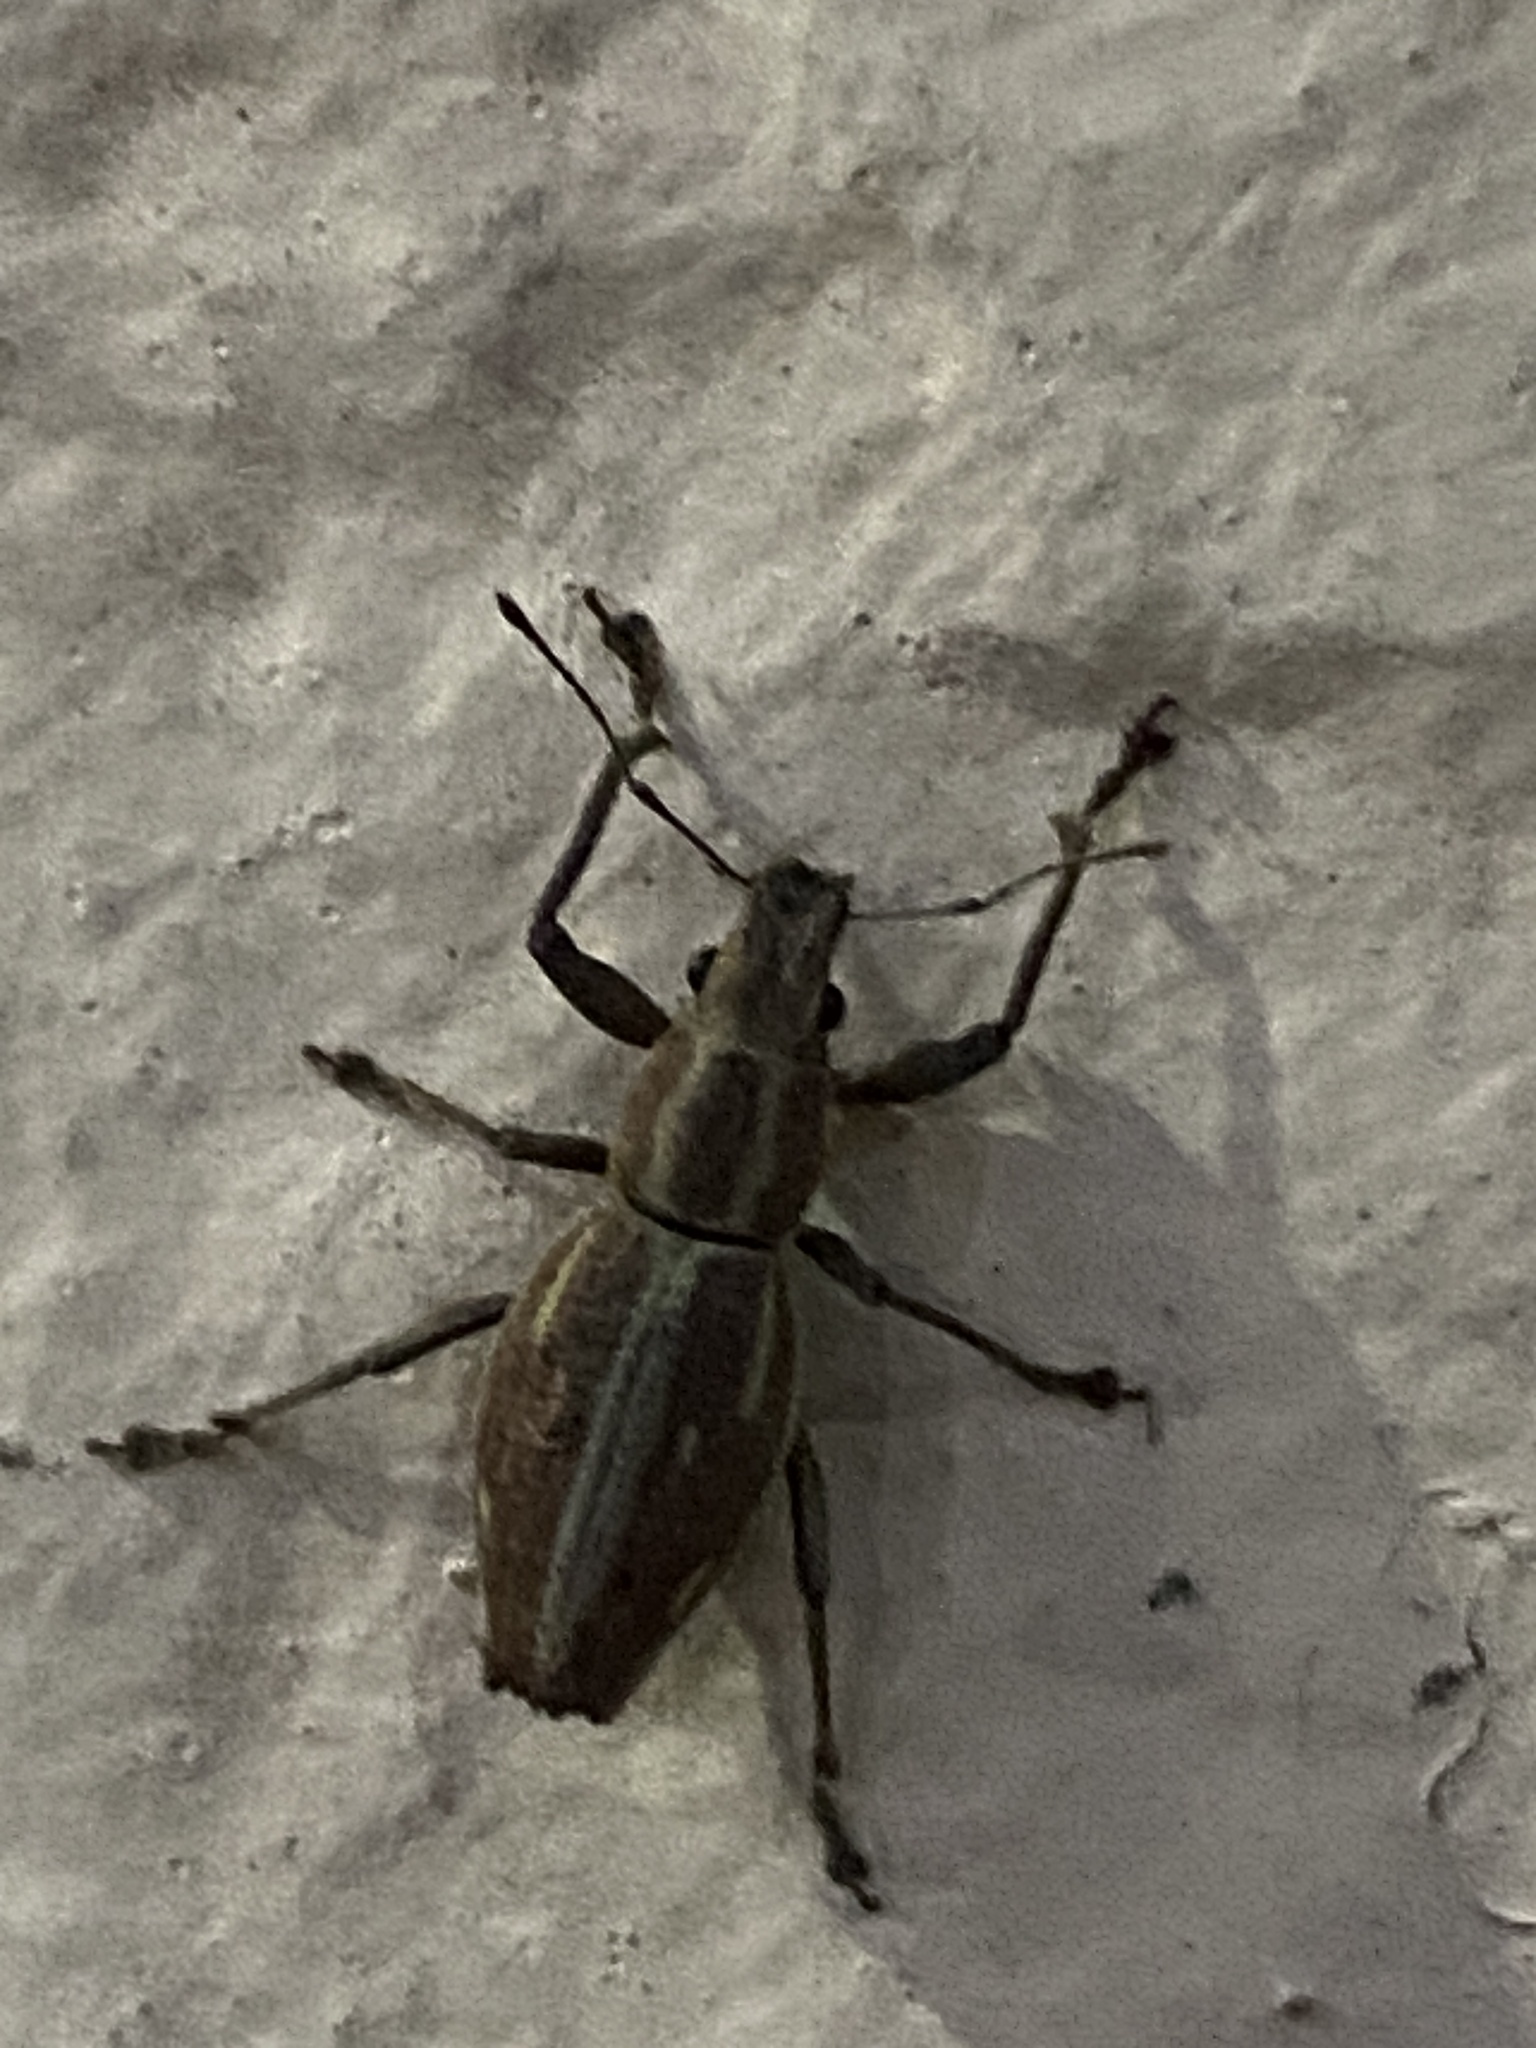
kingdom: Animalia
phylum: Arthropoda
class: Insecta
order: Coleoptera
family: Curculionidae
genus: Naupactus
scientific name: Naupactus xanthographus
